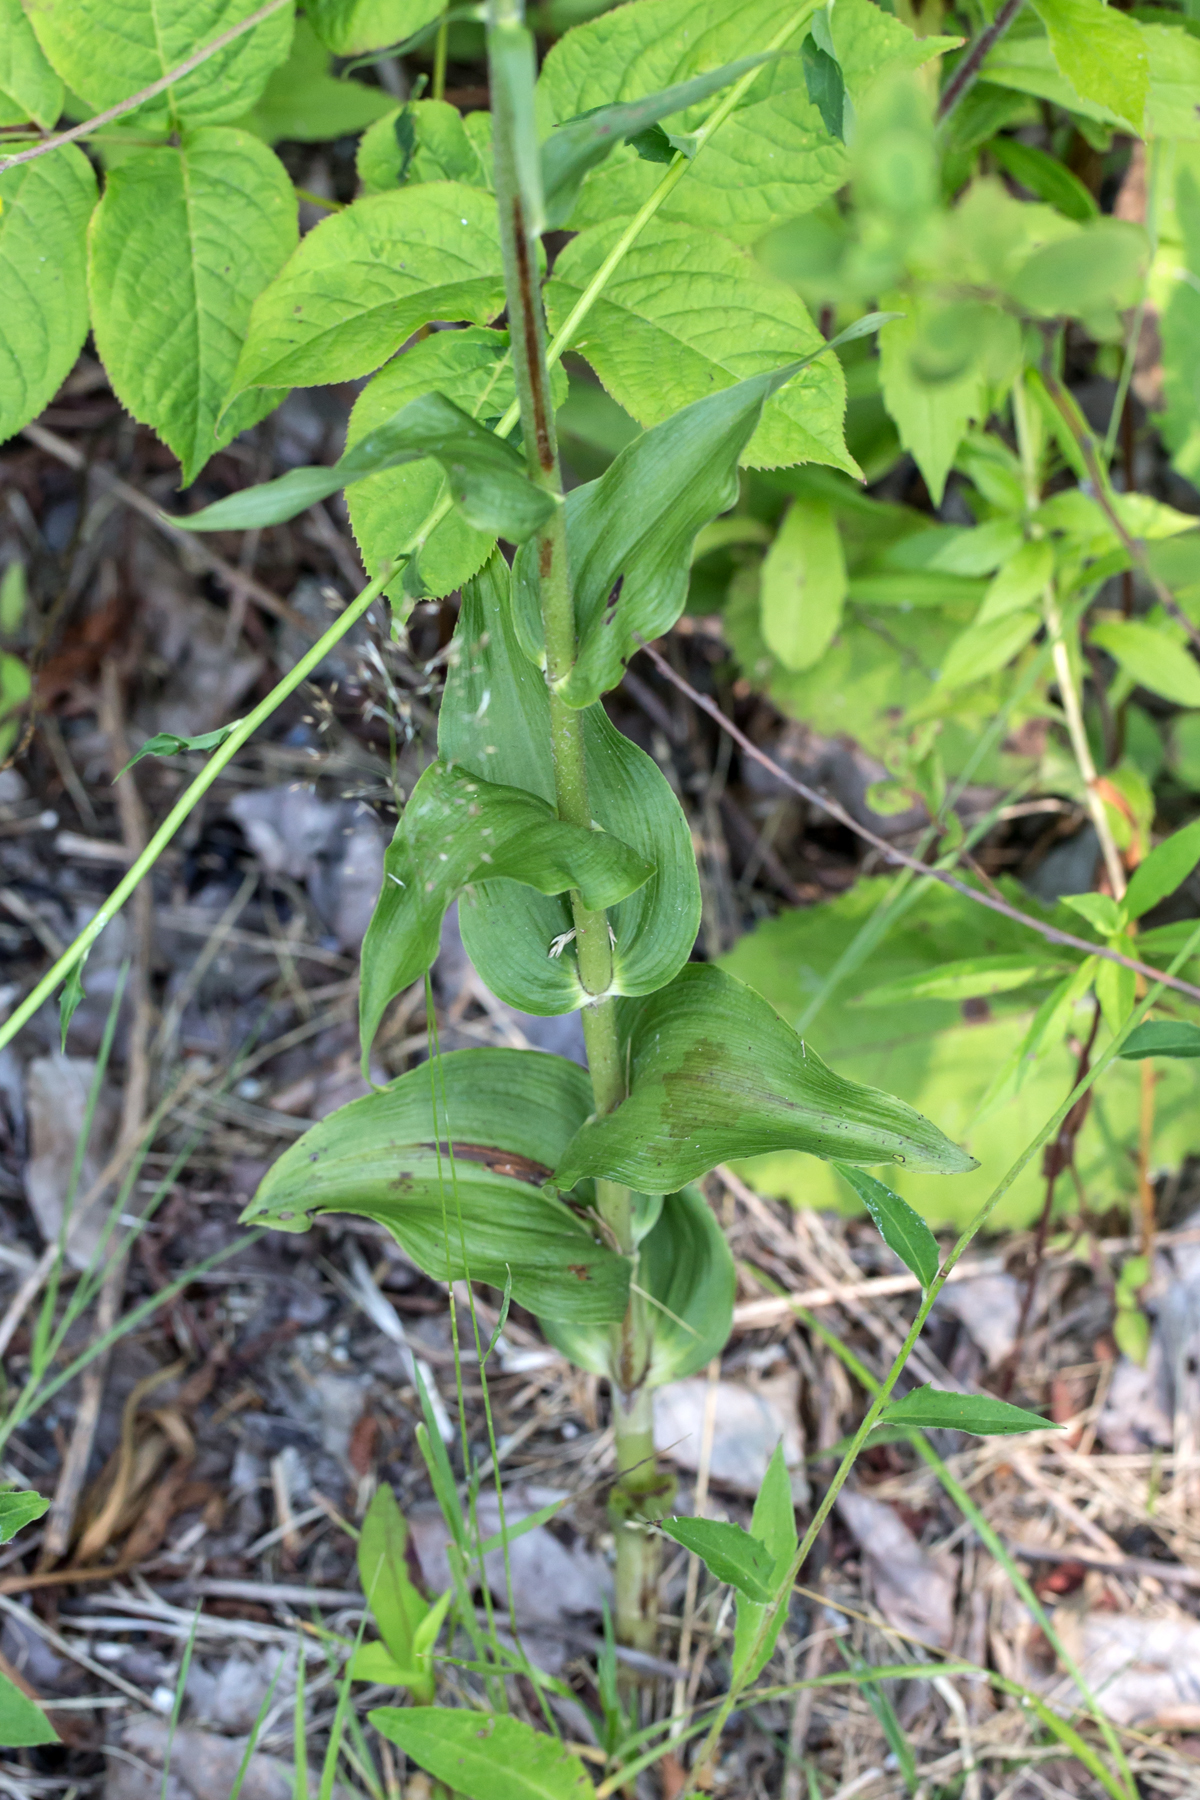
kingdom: Plantae
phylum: Tracheophyta
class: Liliopsida
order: Asparagales
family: Orchidaceae
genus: Epipactis
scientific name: Epipactis helleborine
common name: Broad-leaved helleborine
